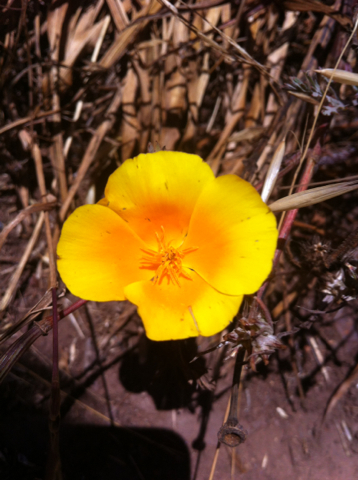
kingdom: Plantae
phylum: Tracheophyta
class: Magnoliopsida
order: Ranunculales
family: Papaveraceae
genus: Eschscholzia
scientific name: Eschscholzia californica
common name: California poppy
